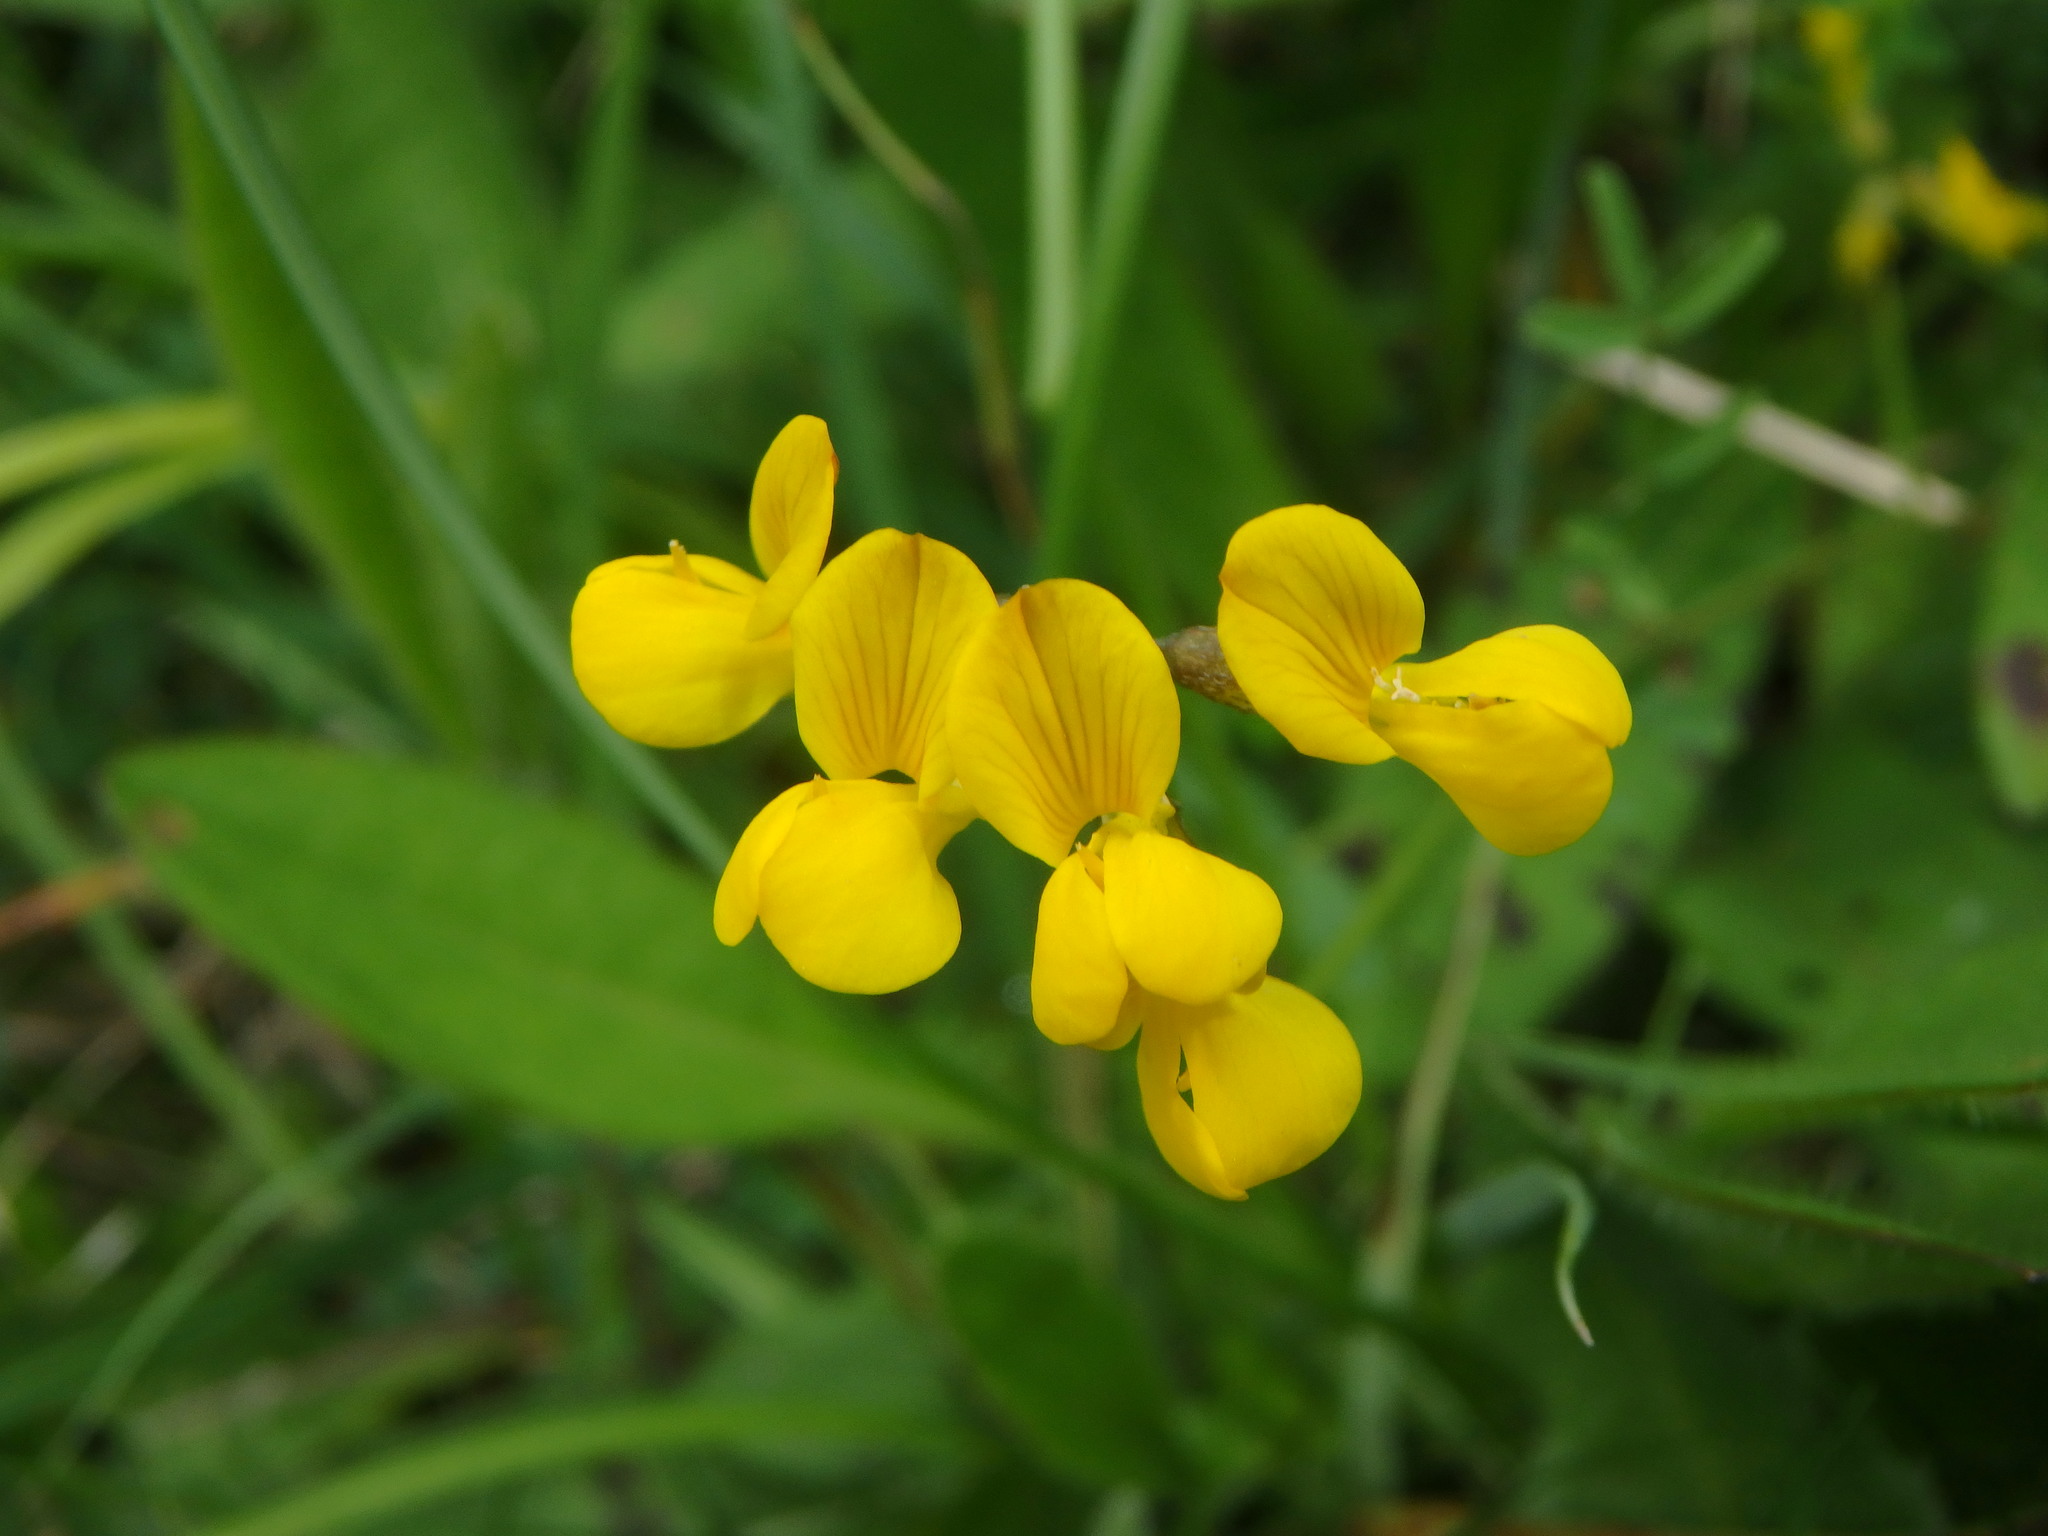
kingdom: Plantae
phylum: Tracheophyta
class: Magnoliopsida
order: Fabales
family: Fabaceae
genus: Hippocrepis
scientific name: Hippocrepis comosa
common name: Horseshoe vetch
